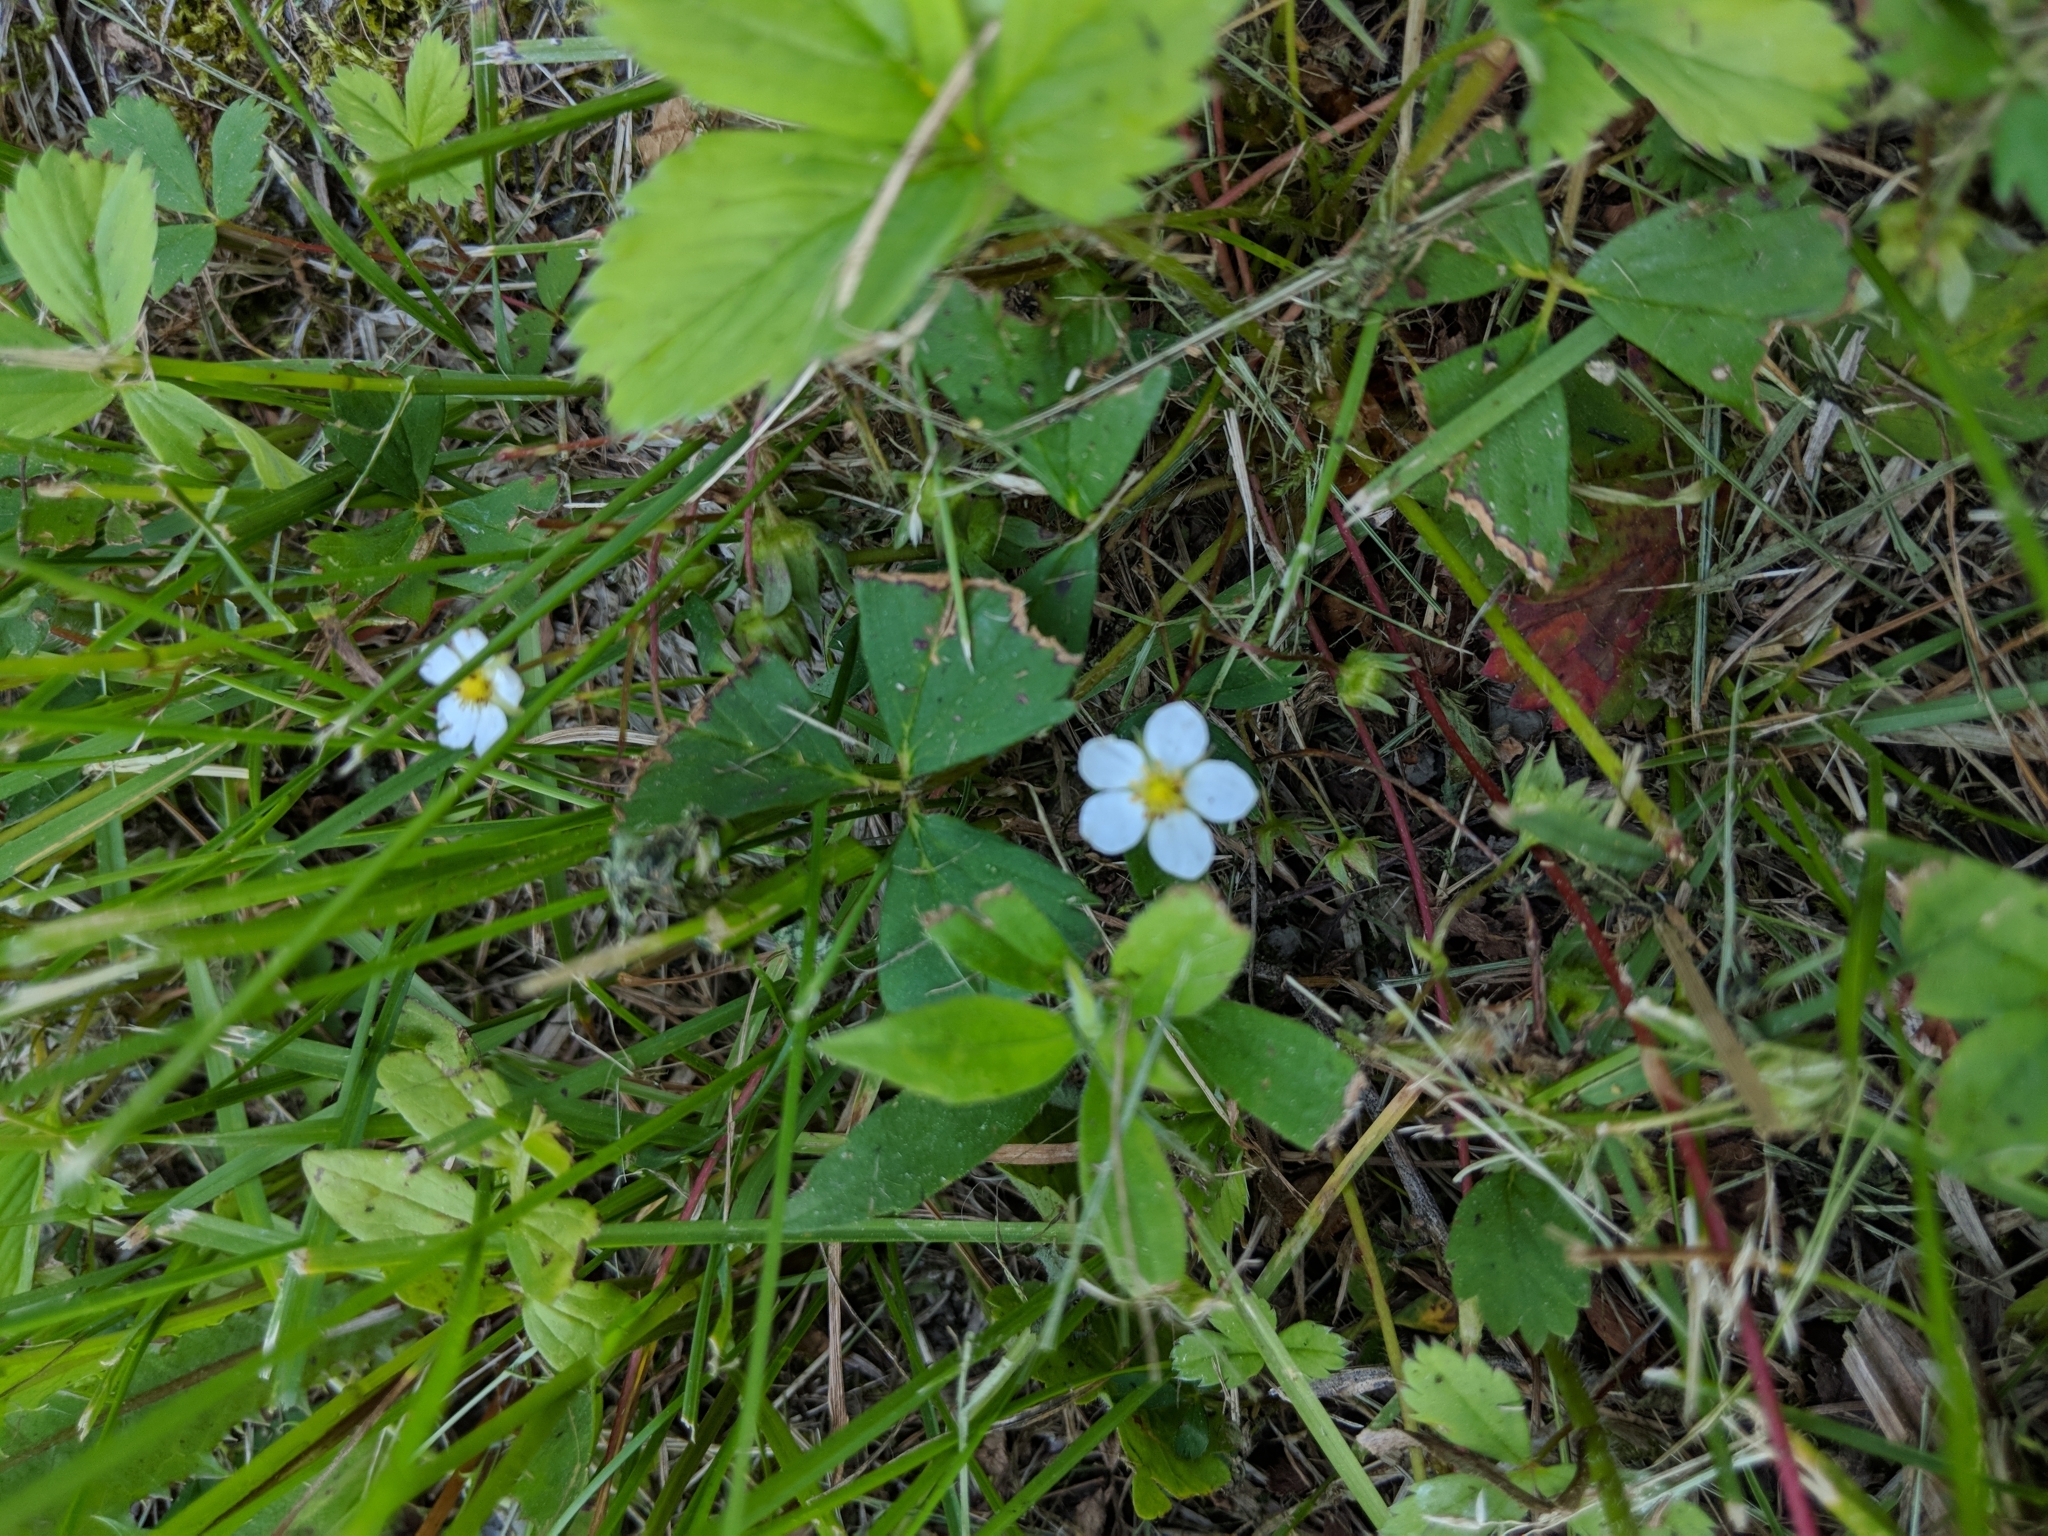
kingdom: Plantae
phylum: Tracheophyta
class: Magnoliopsida
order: Rosales
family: Rosaceae
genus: Fragaria
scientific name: Fragaria virginiana
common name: Thickleaved wild strawberry
